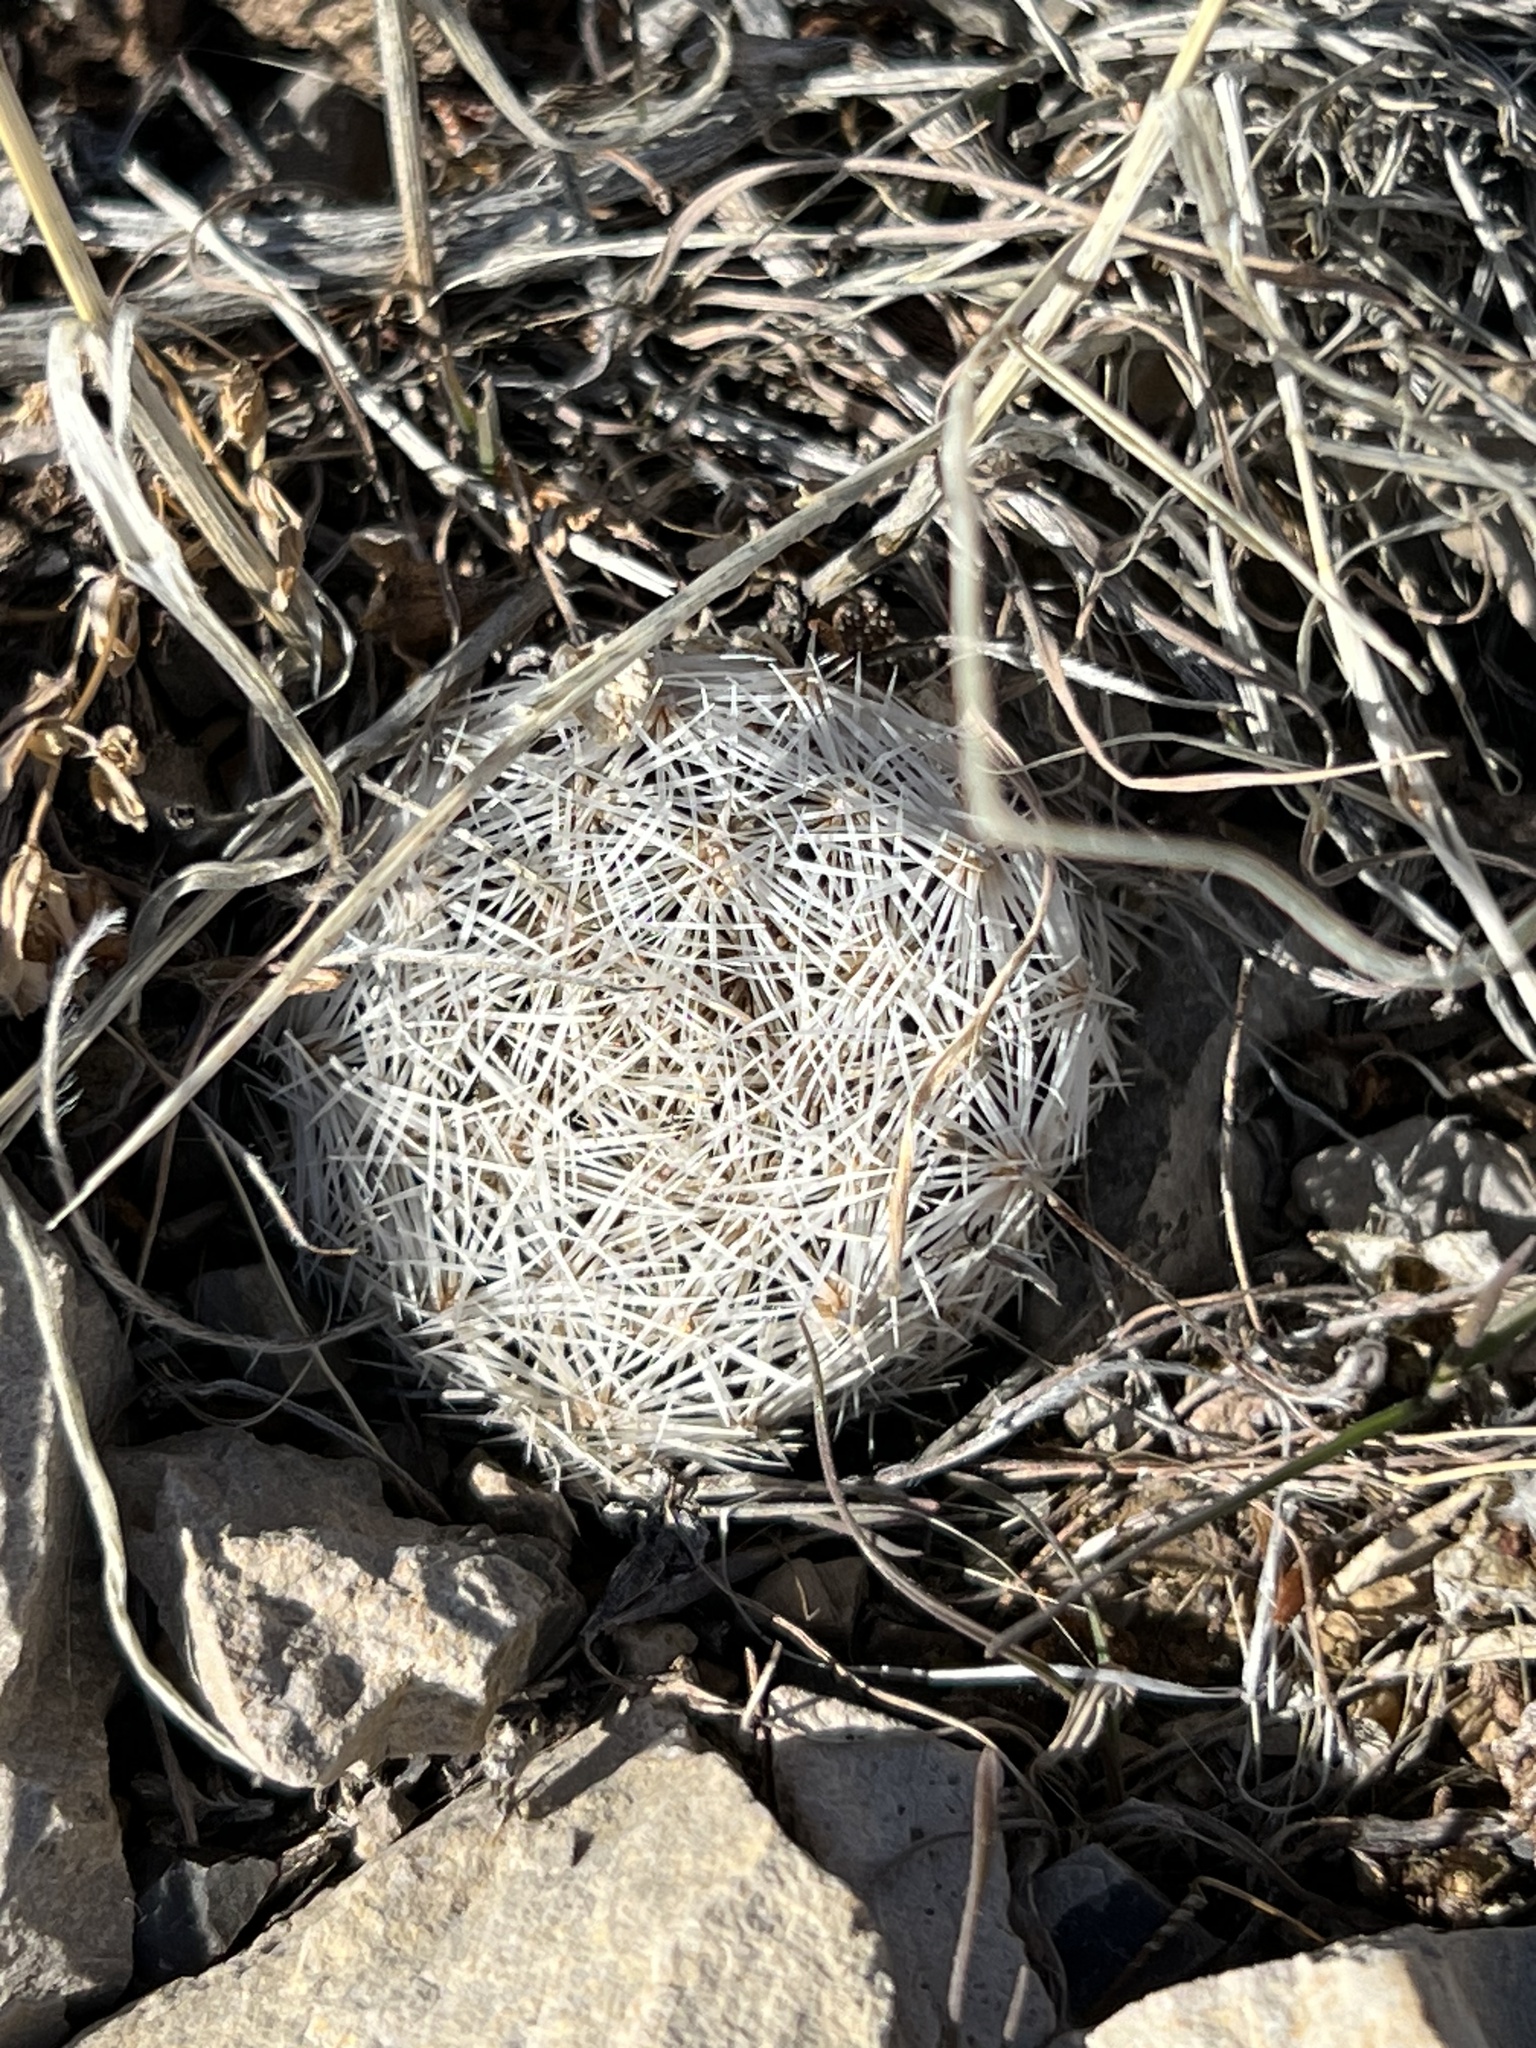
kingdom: Plantae
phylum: Tracheophyta
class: Magnoliopsida
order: Caryophyllales
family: Cactaceae
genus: Pelecyphora
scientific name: Pelecyphora dasyacantha
